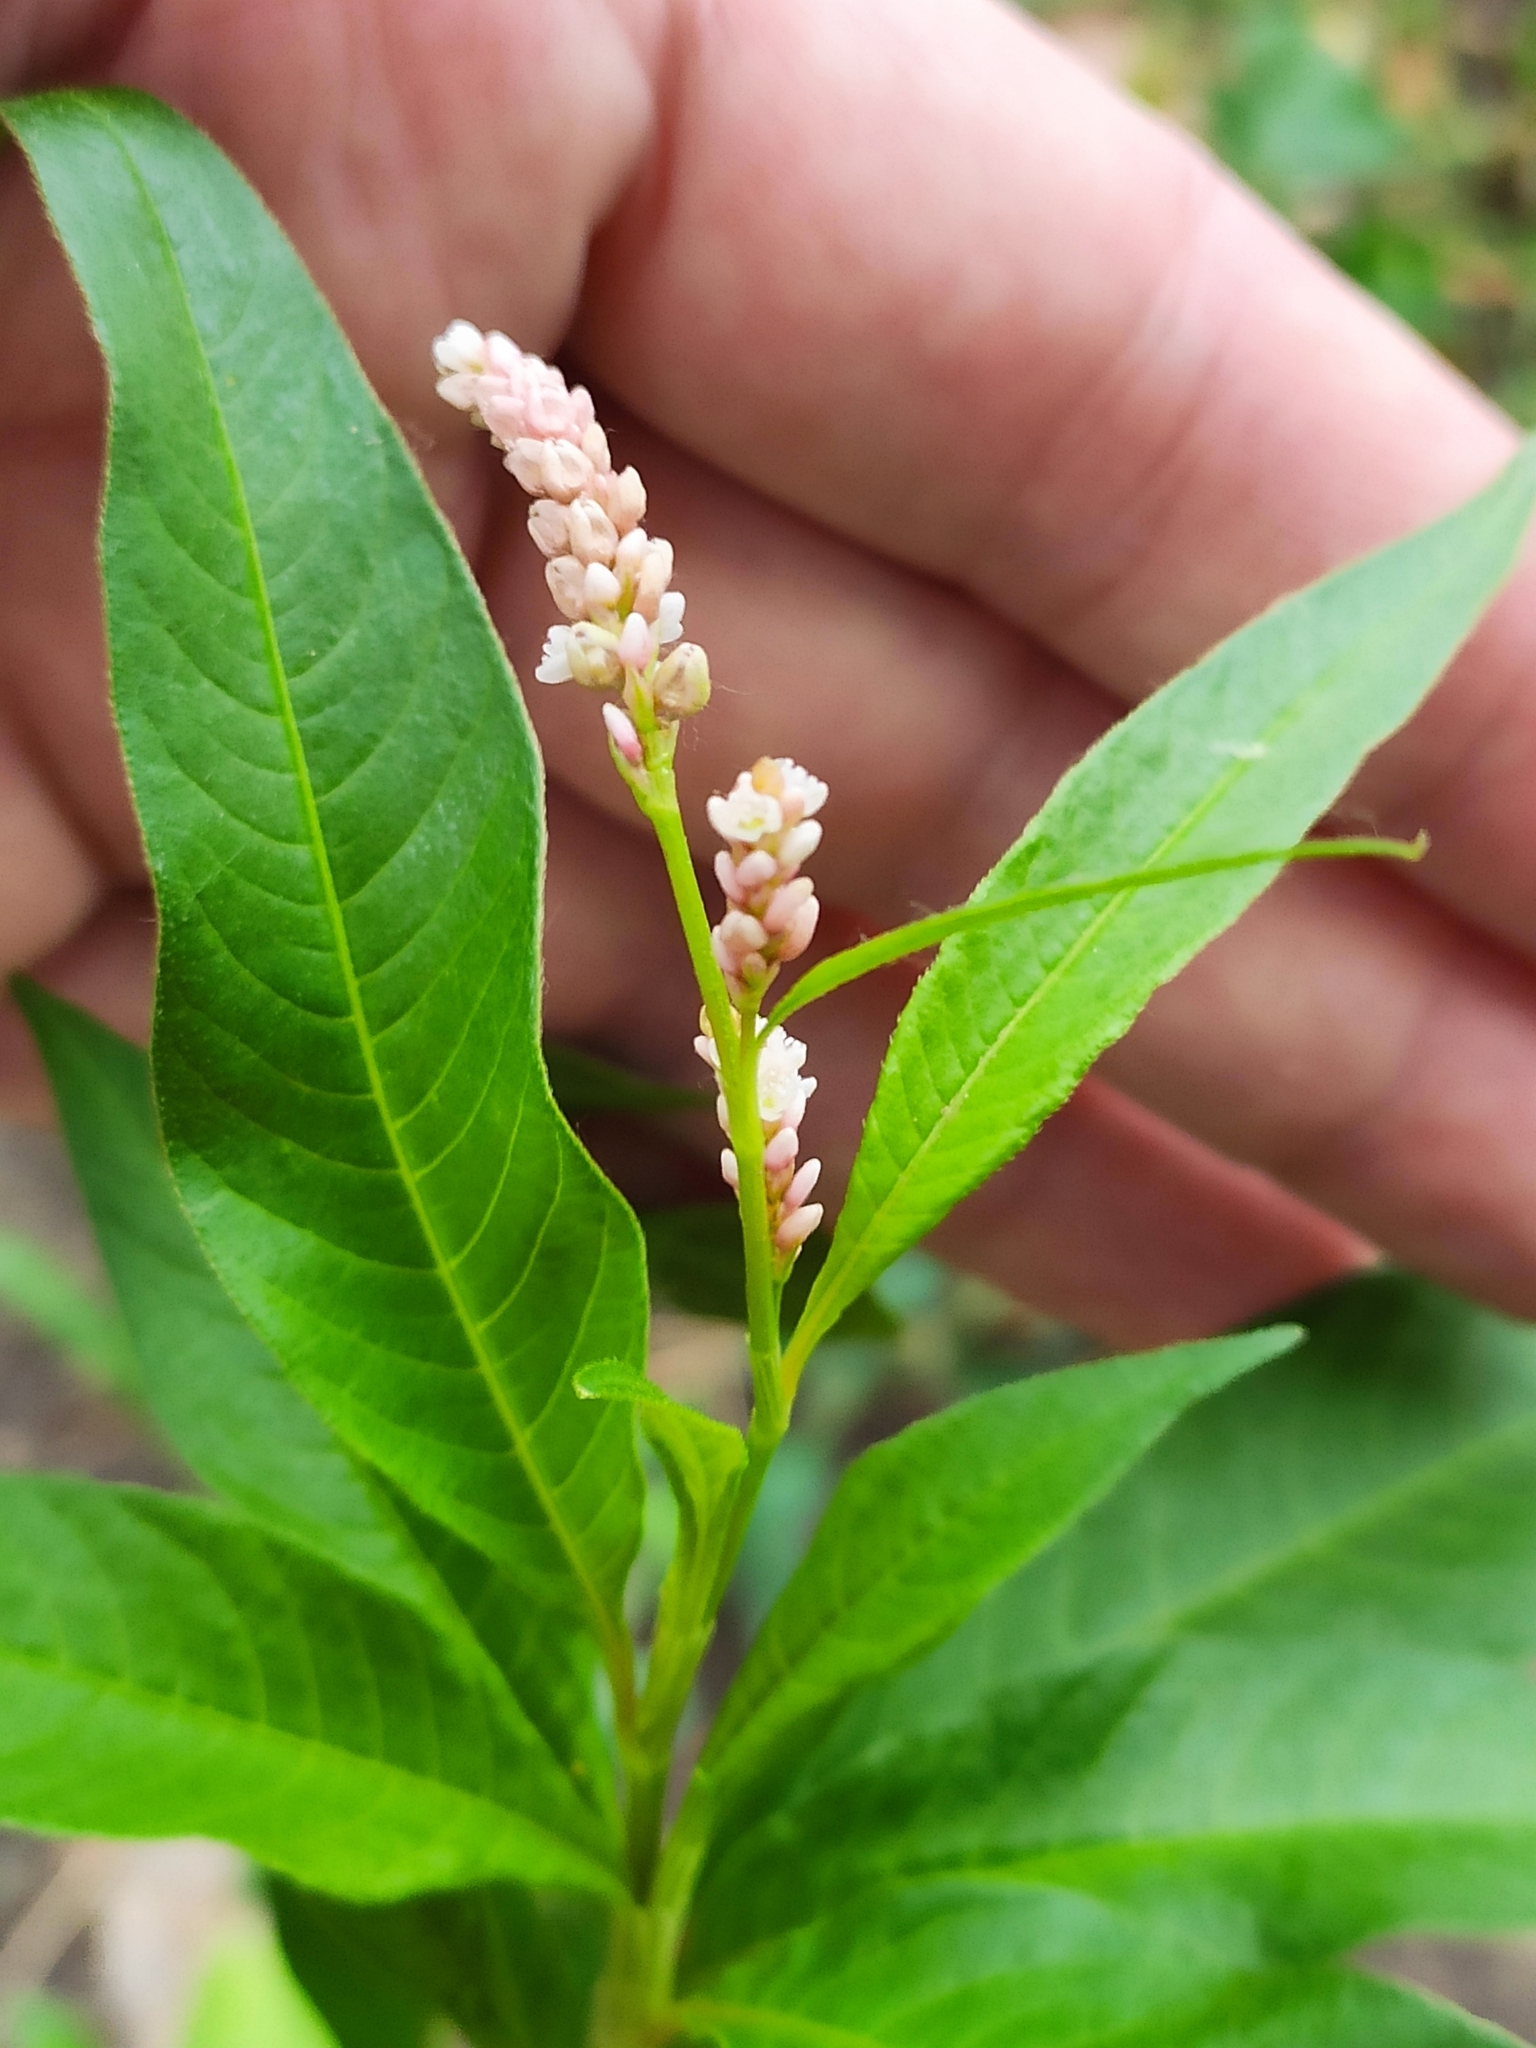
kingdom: Plantae
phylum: Tracheophyta
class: Magnoliopsida
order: Caryophyllales
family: Polygonaceae
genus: Persicaria
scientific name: Persicaria lapathifolia
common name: Curlytop knotweed
